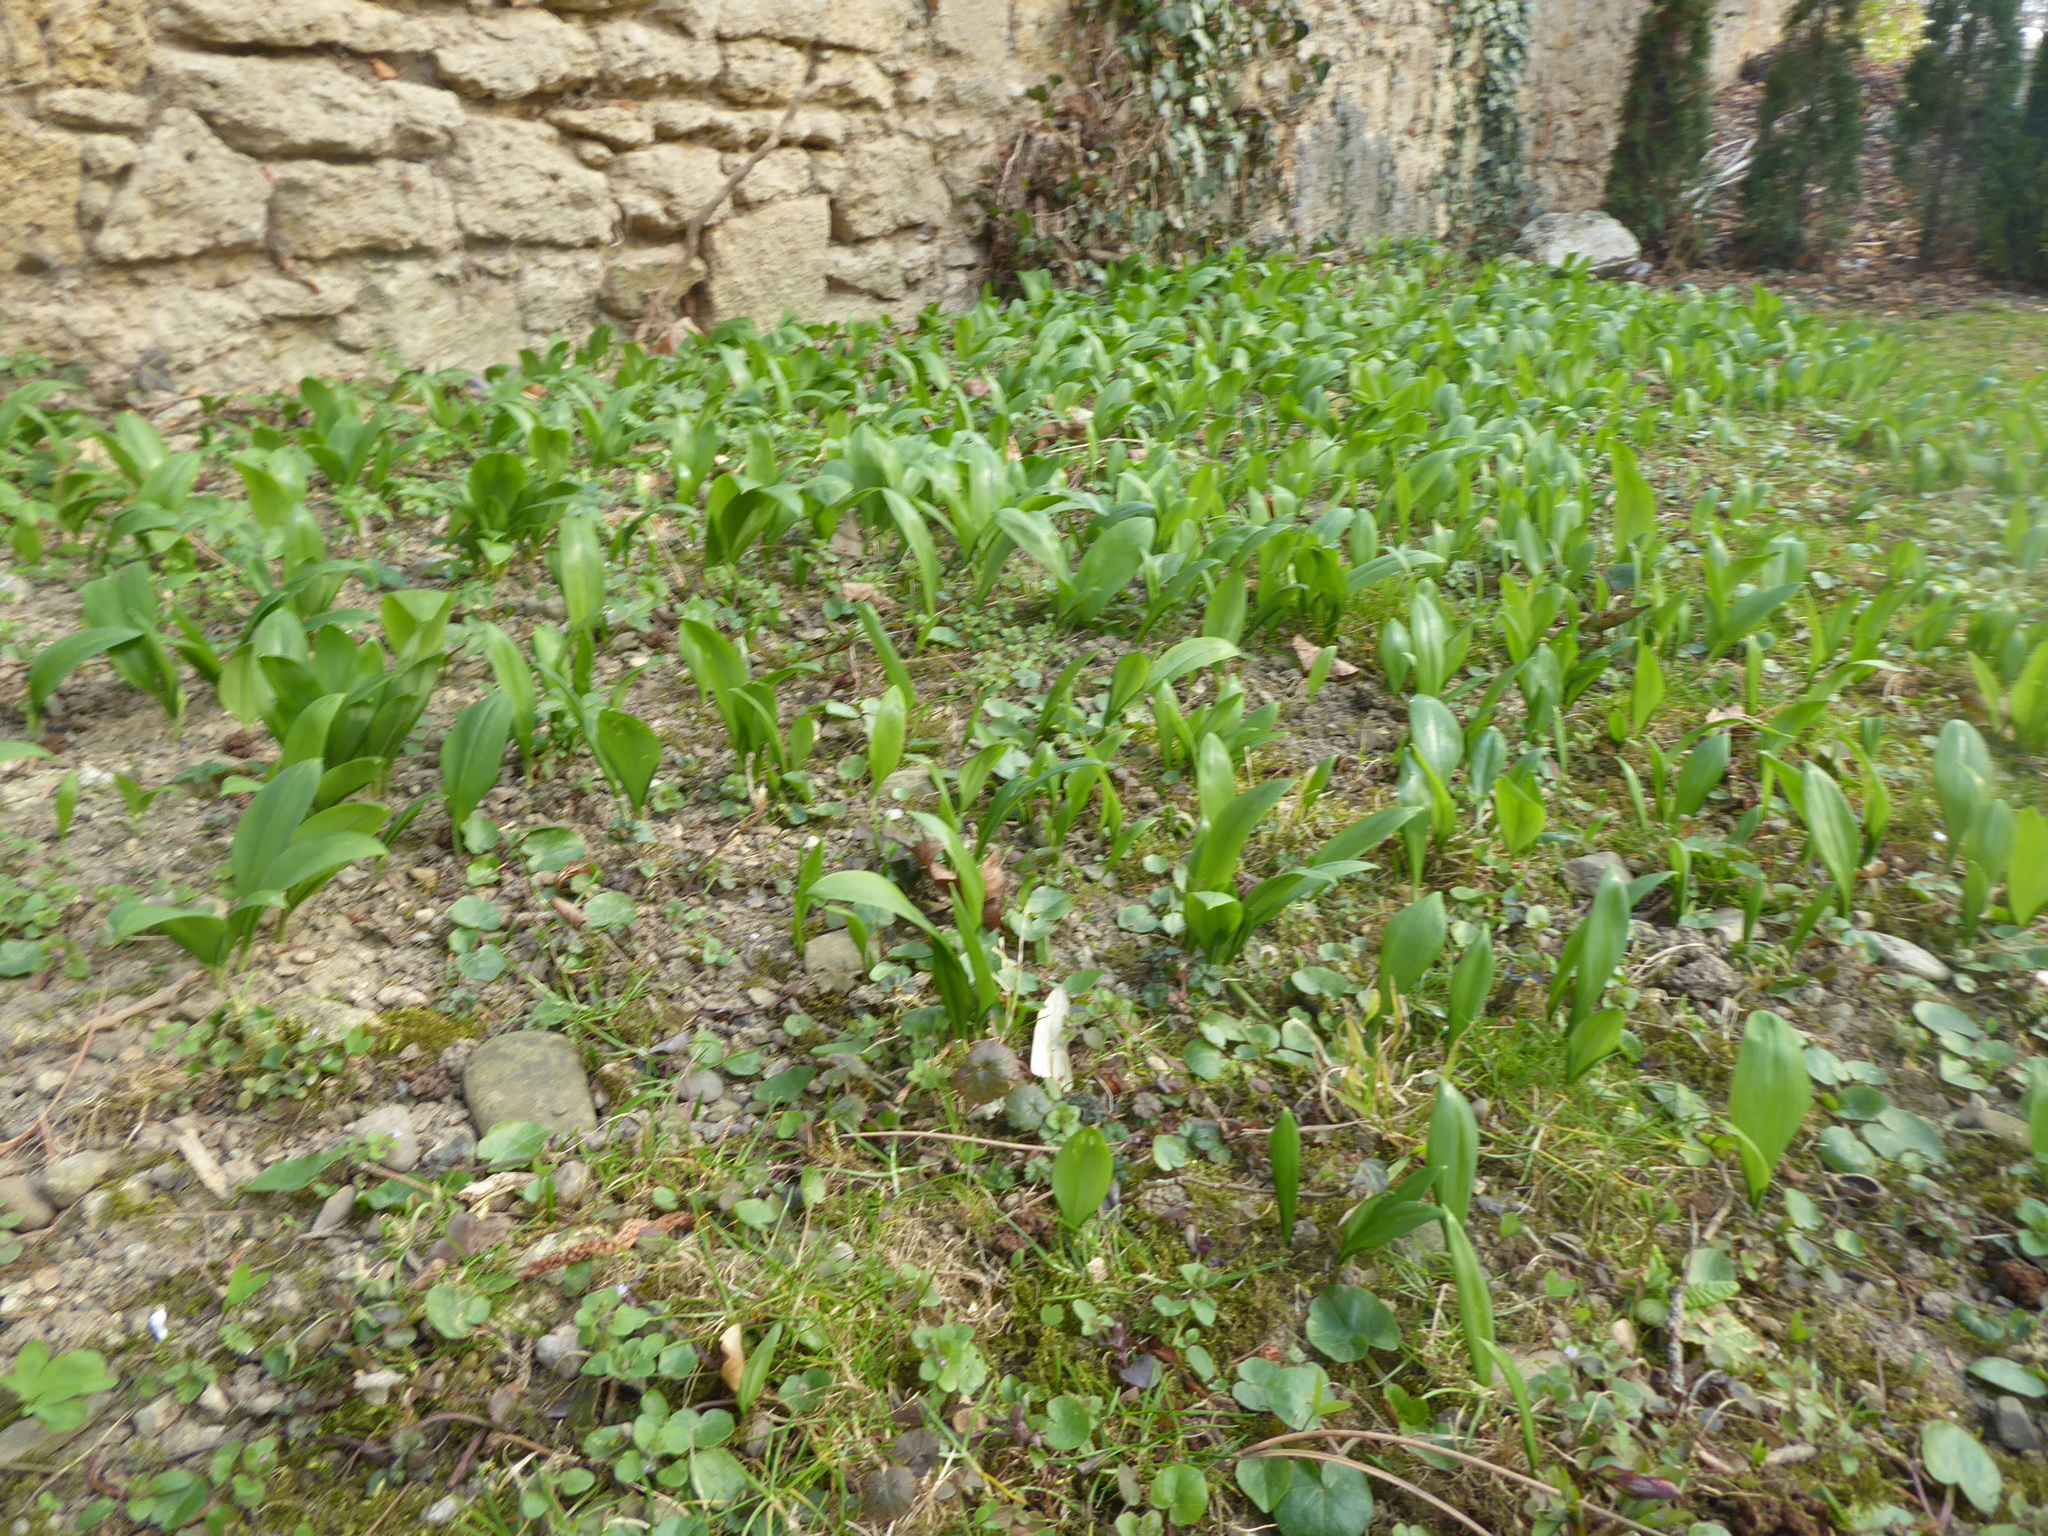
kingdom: Plantae
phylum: Tracheophyta
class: Liliopsida
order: Asparagales
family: Amaryllidaceae
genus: Allium
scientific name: Allium ursinum
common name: Ramsons
